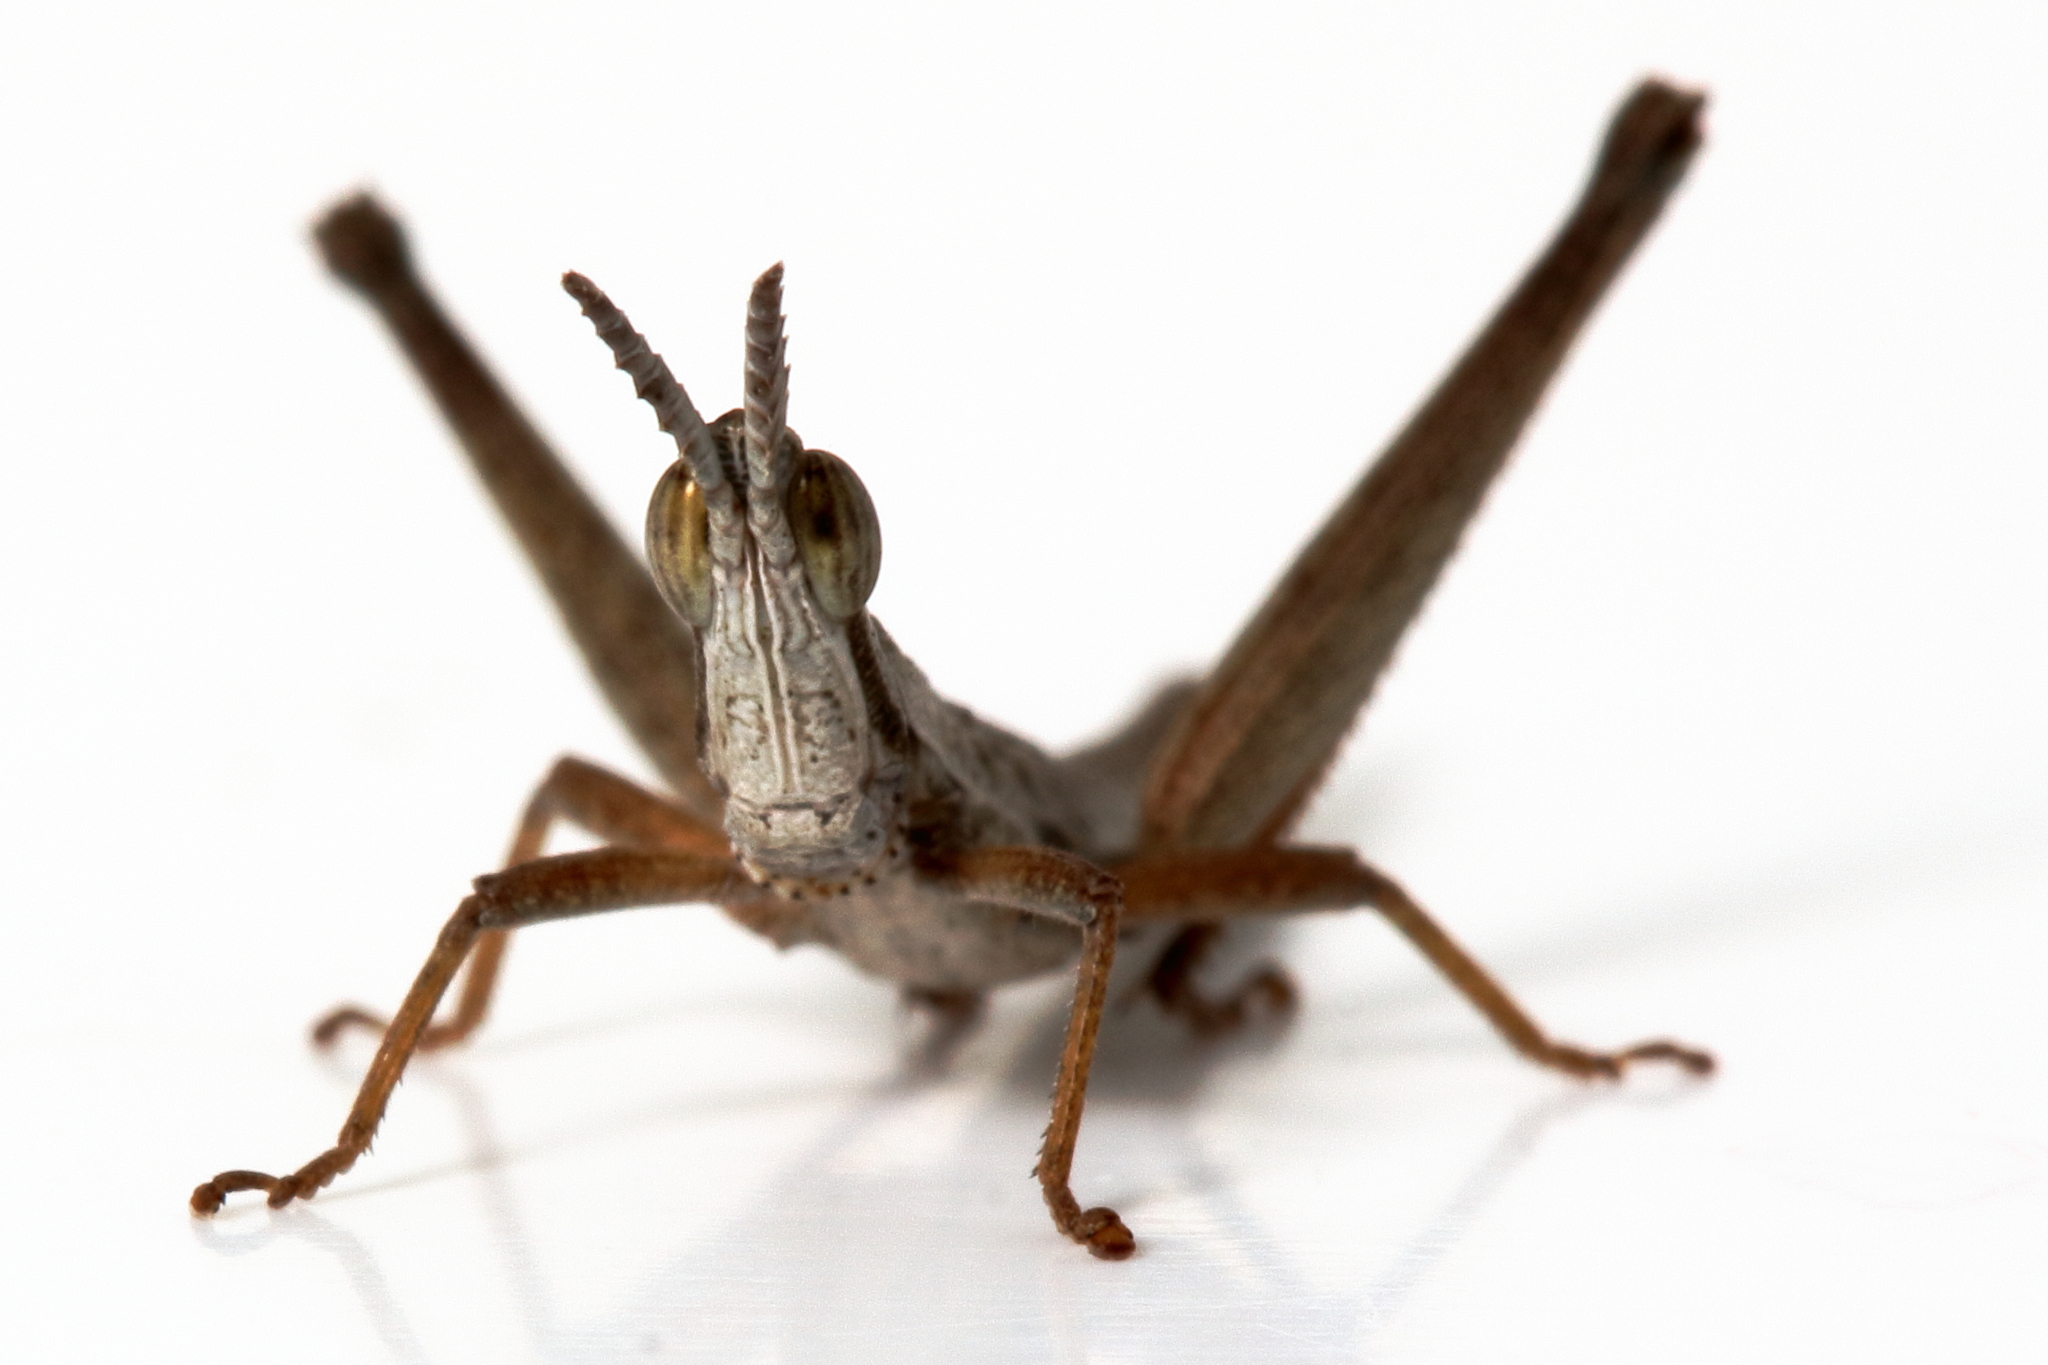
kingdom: Animalia
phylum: Arthropoda
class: Insecta
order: Orthoptera
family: Morabidae
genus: Keyacris
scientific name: Keyacris scurra
